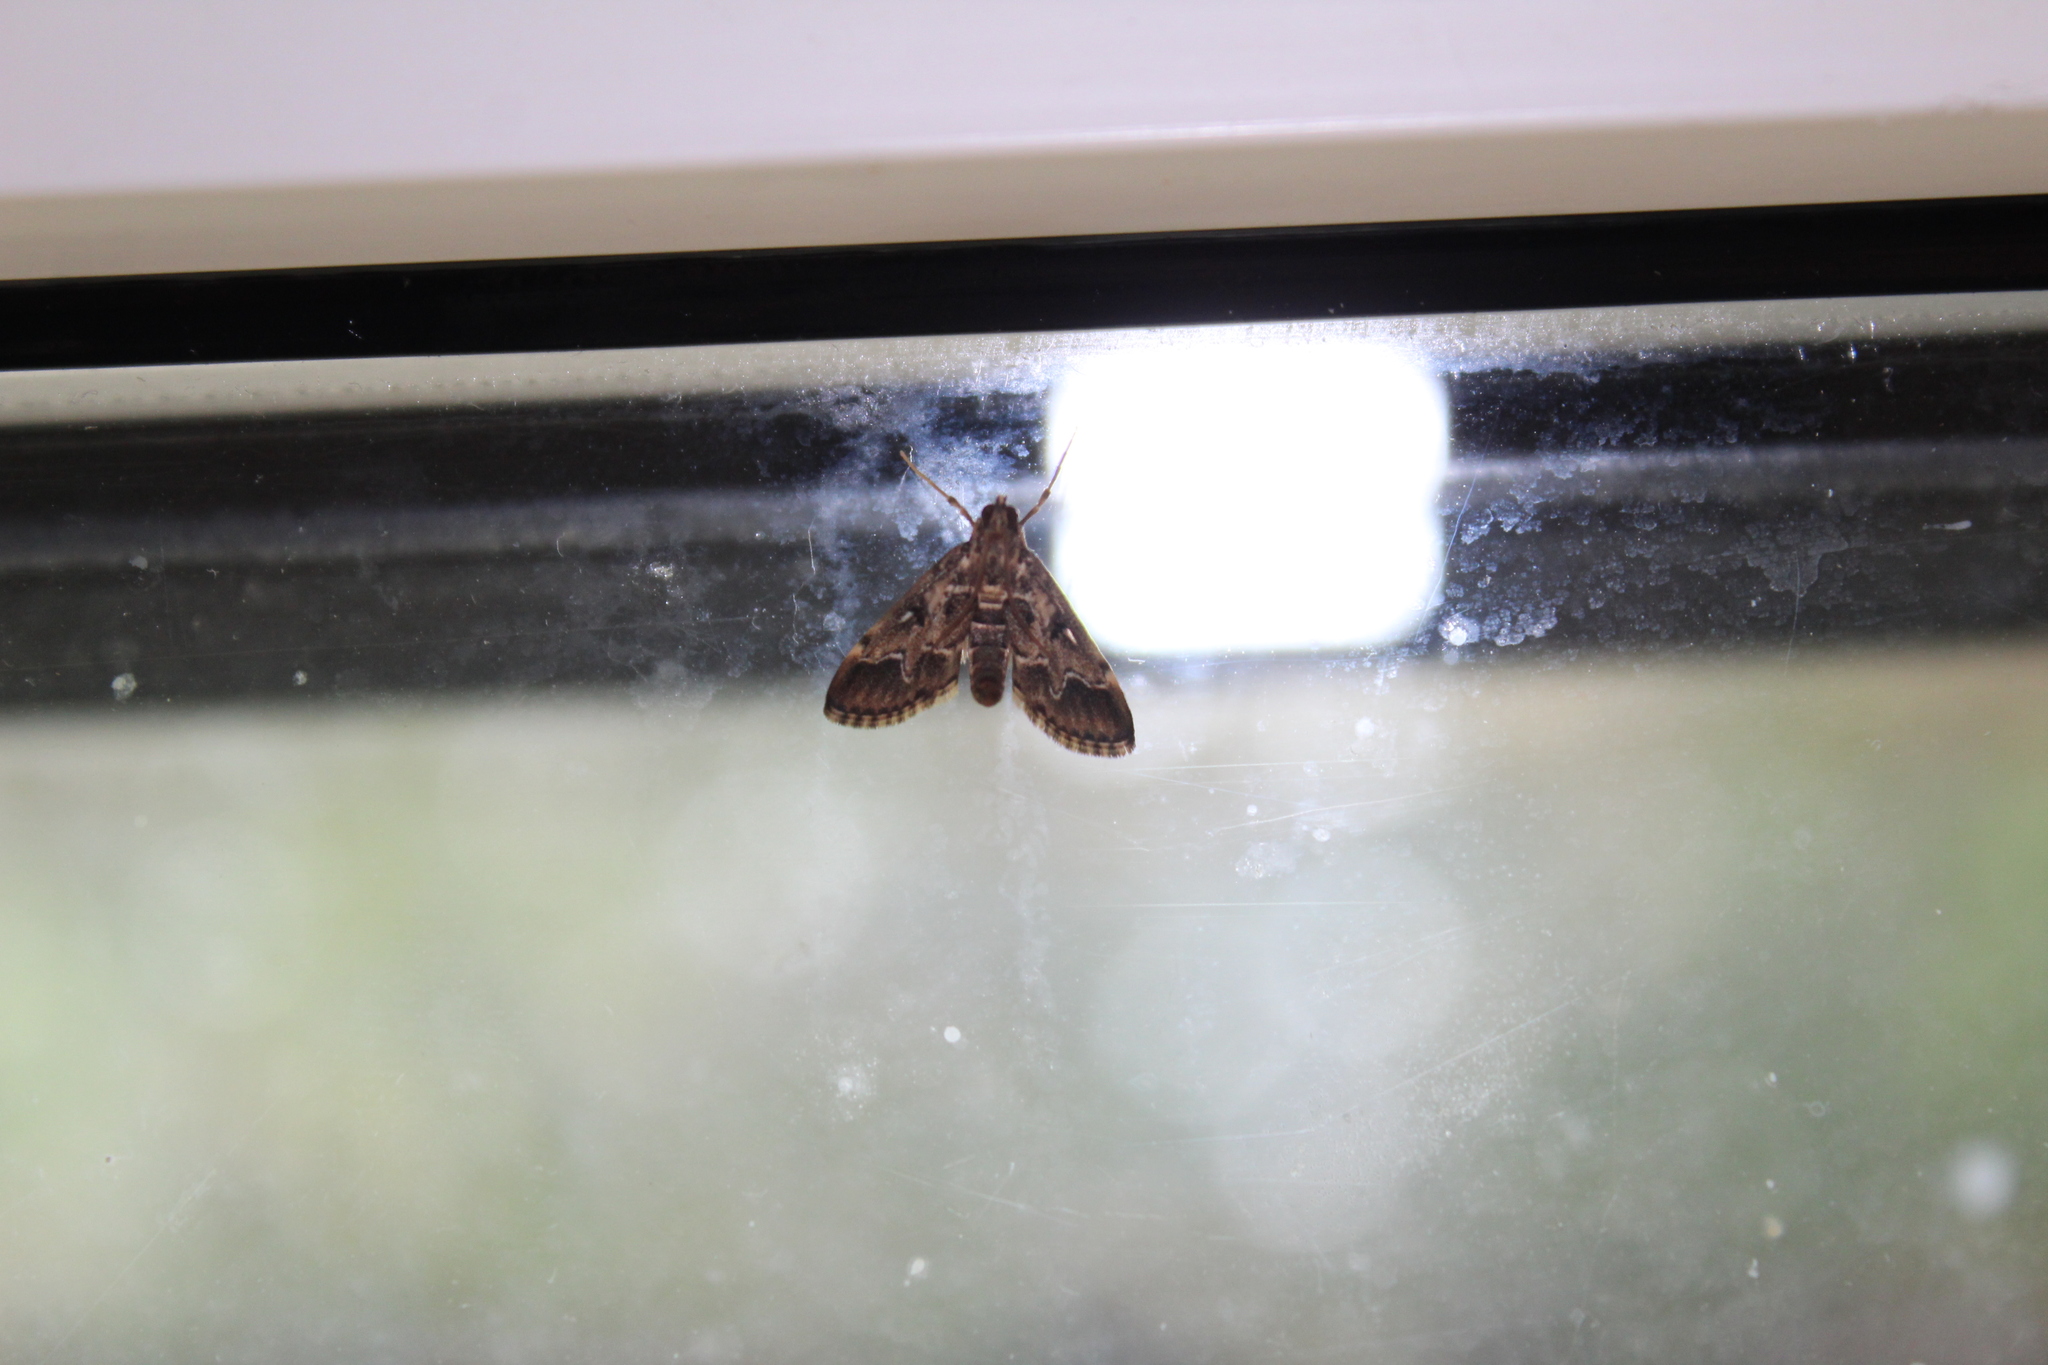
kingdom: Animalia
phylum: Arthropoda
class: Insecta
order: Lepidoptera
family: Crambidae
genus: Duponchelia
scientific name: Duponchelia fovealis
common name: Crambid moth
